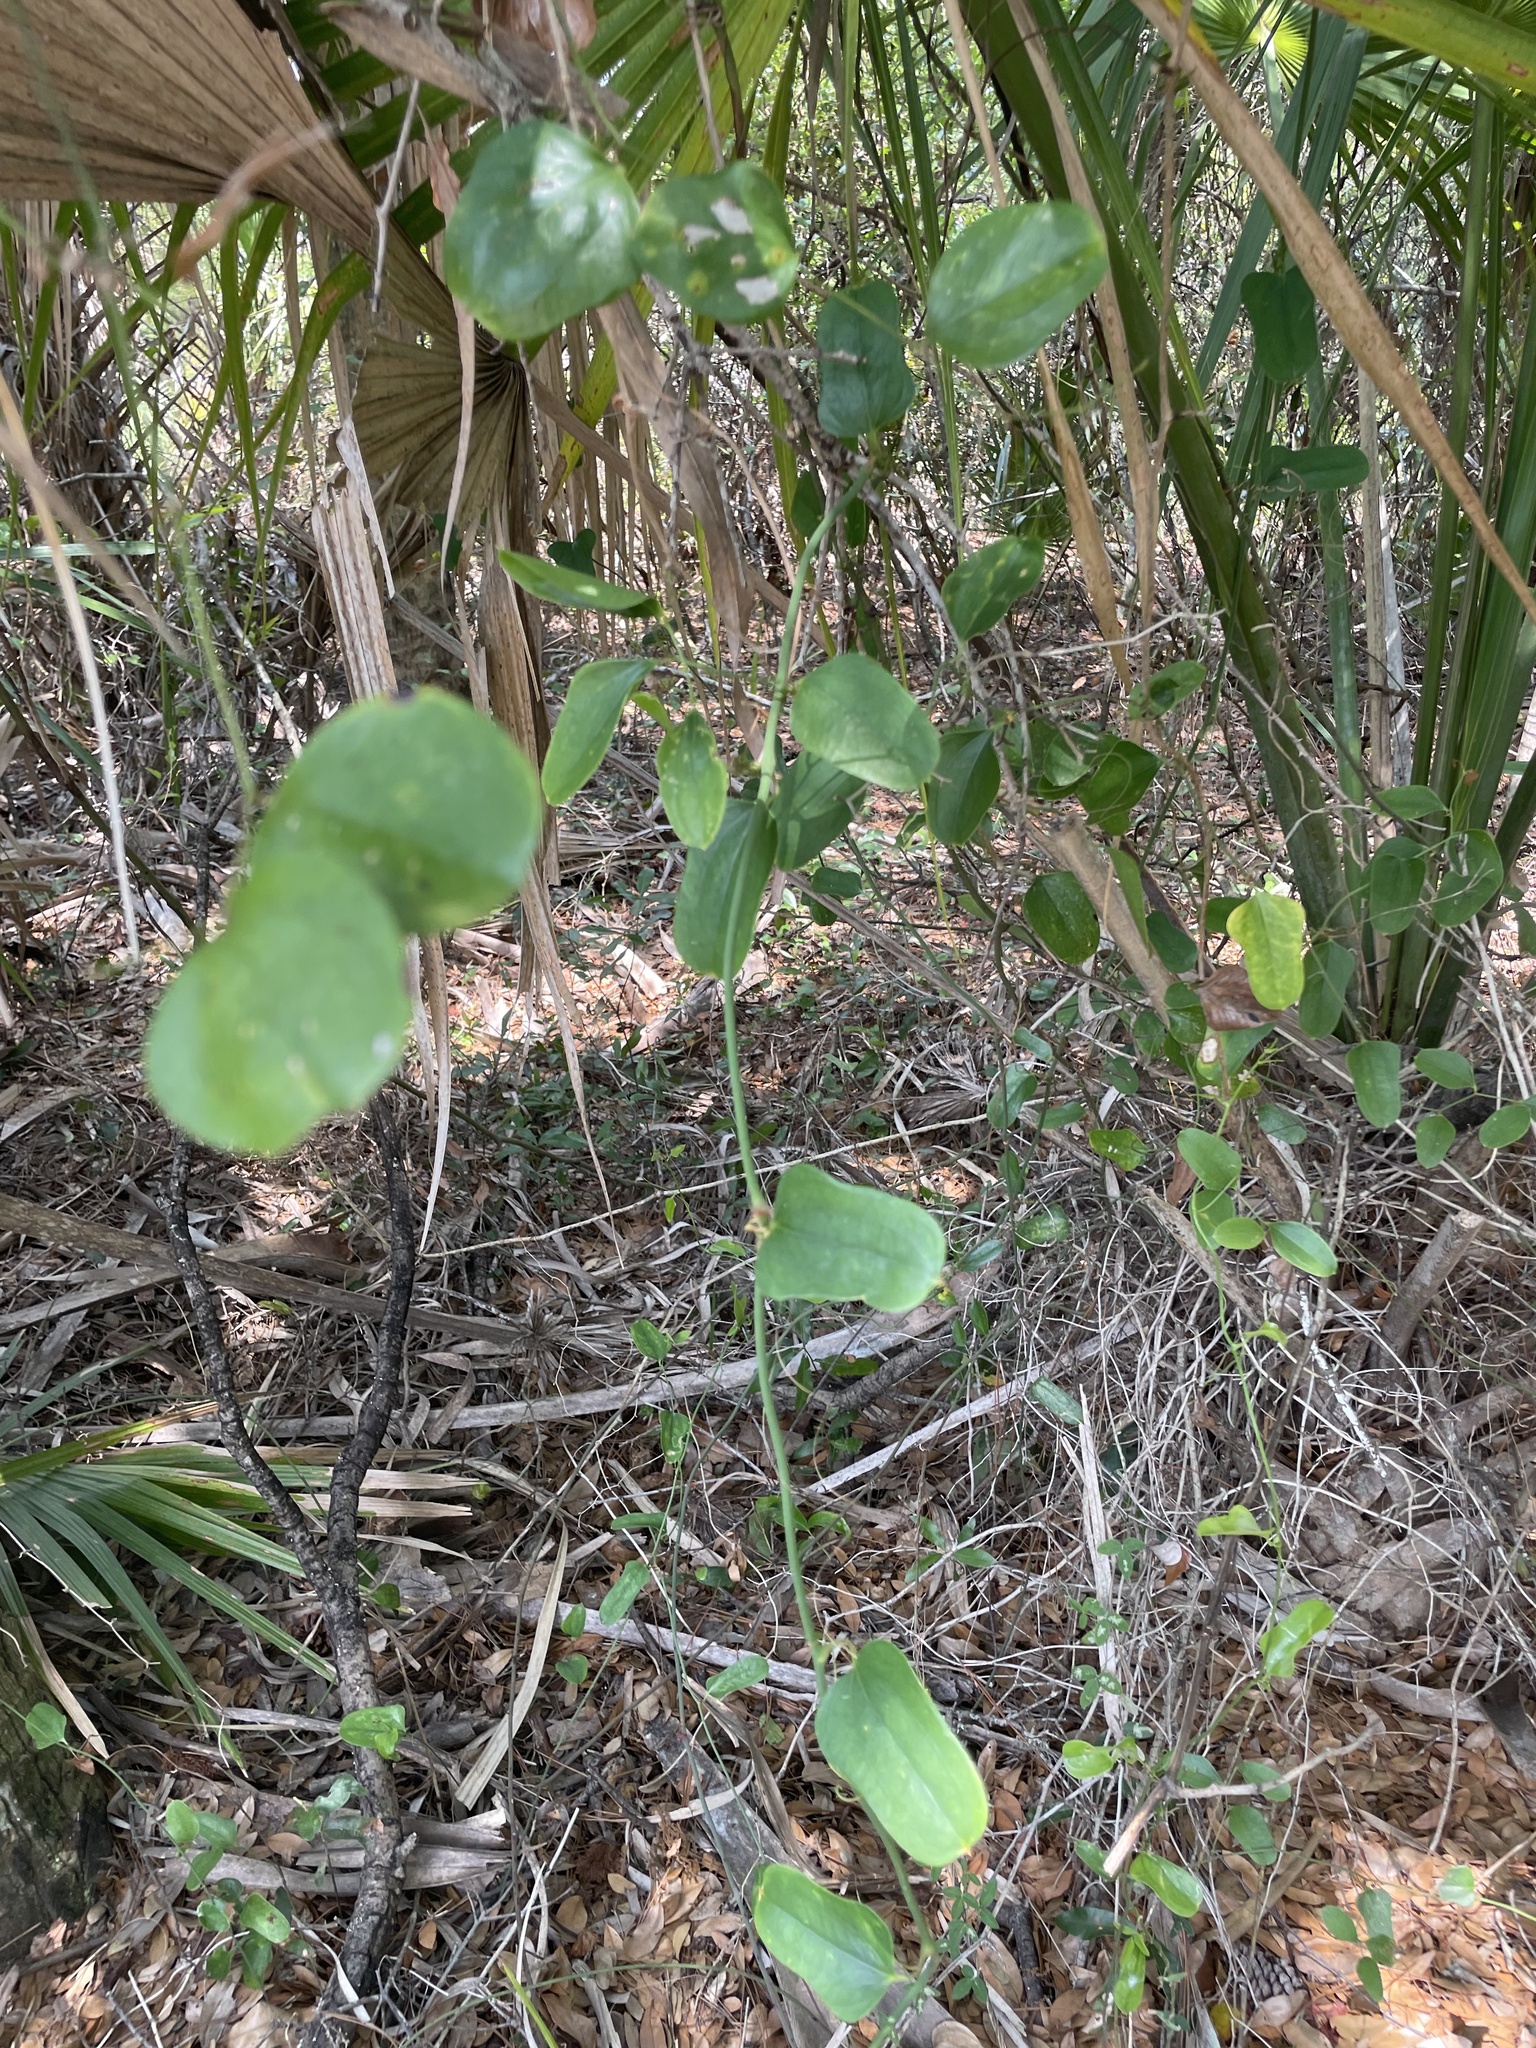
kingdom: Plantae
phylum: Tracheophyta
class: Liliopsida
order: Liliales
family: Smilacaceae
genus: Smilax
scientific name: Smilax auriculata
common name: Wild bamboo
